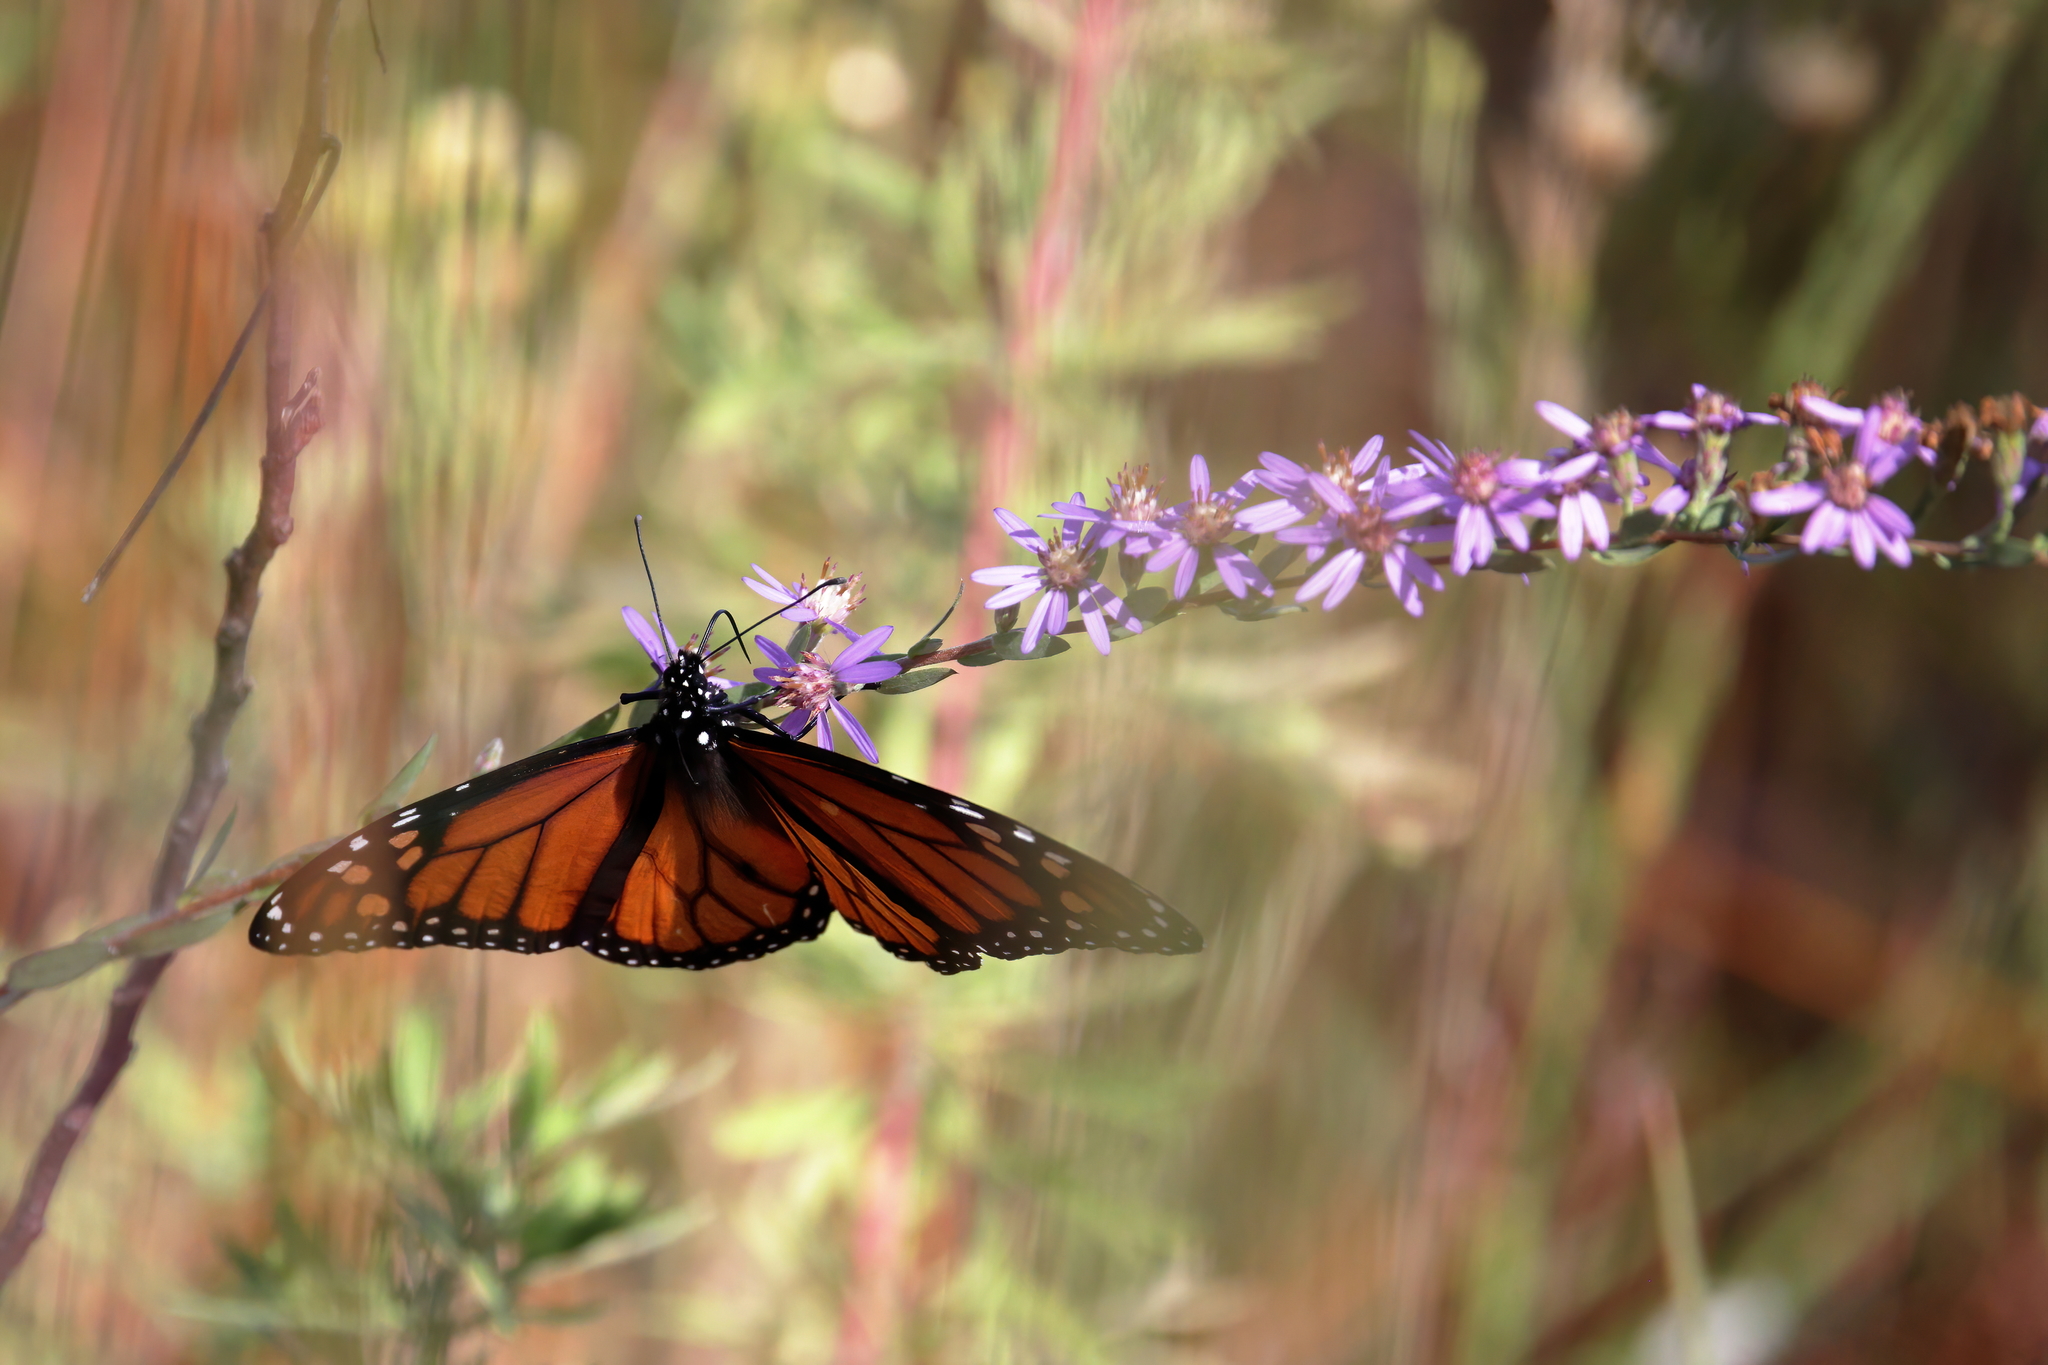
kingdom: Animalia
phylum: Arthropoda
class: Insecta
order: Lepidoptera
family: Nymphalidae
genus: Danaus
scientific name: Danaus plexippus
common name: Monarch
